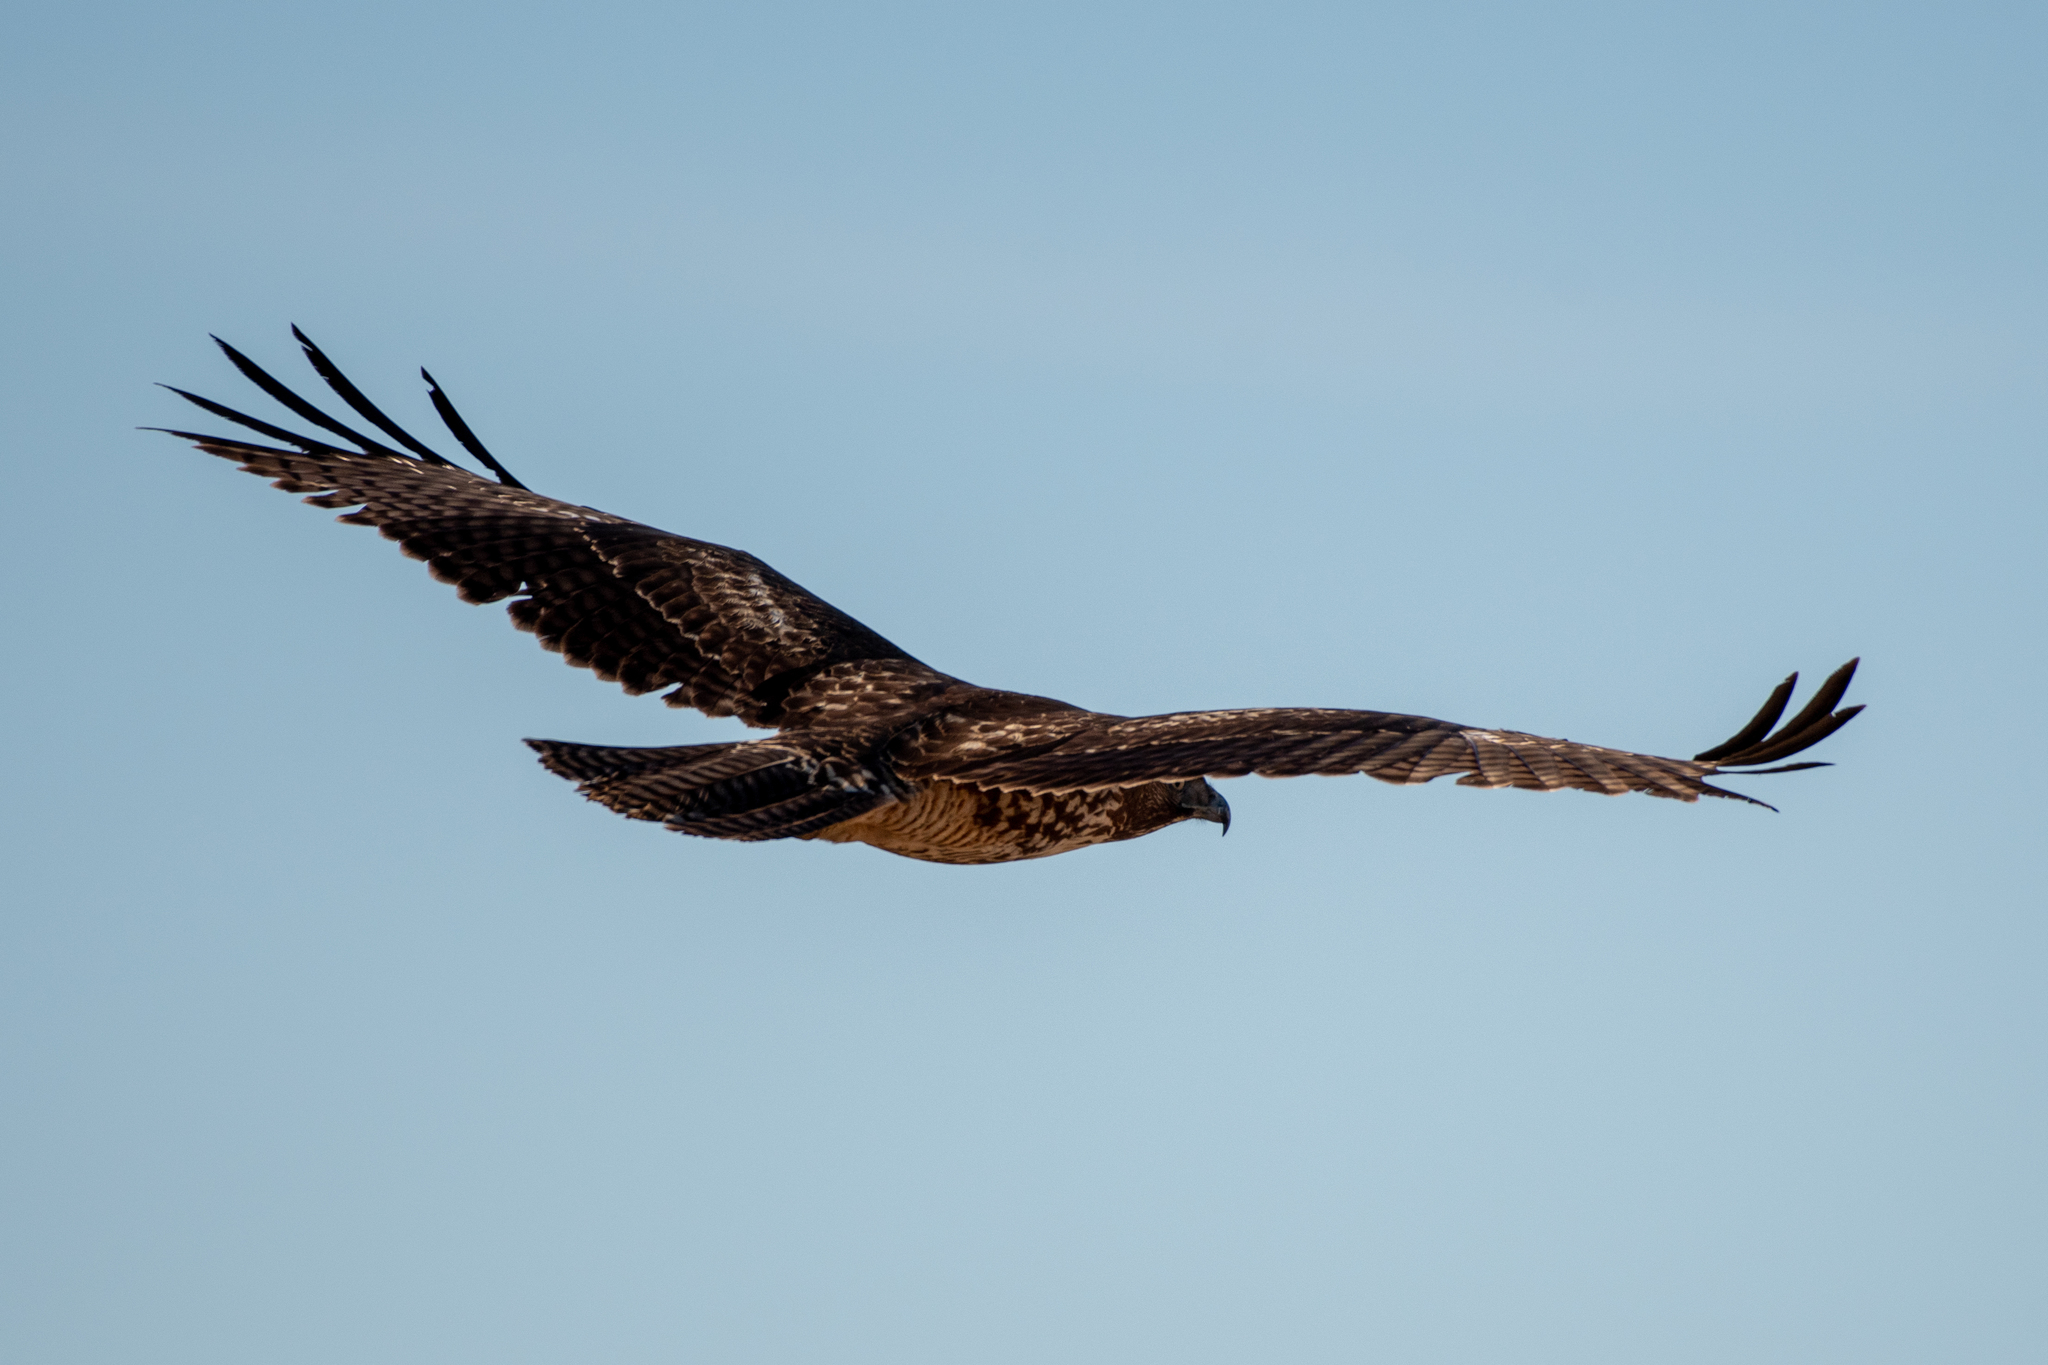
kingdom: Animalia
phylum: Chordata
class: Aves
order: Accipitriformes
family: Accipitridae
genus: Buteo
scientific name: Buteo jamaicensis
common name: Red-tailed hawk
